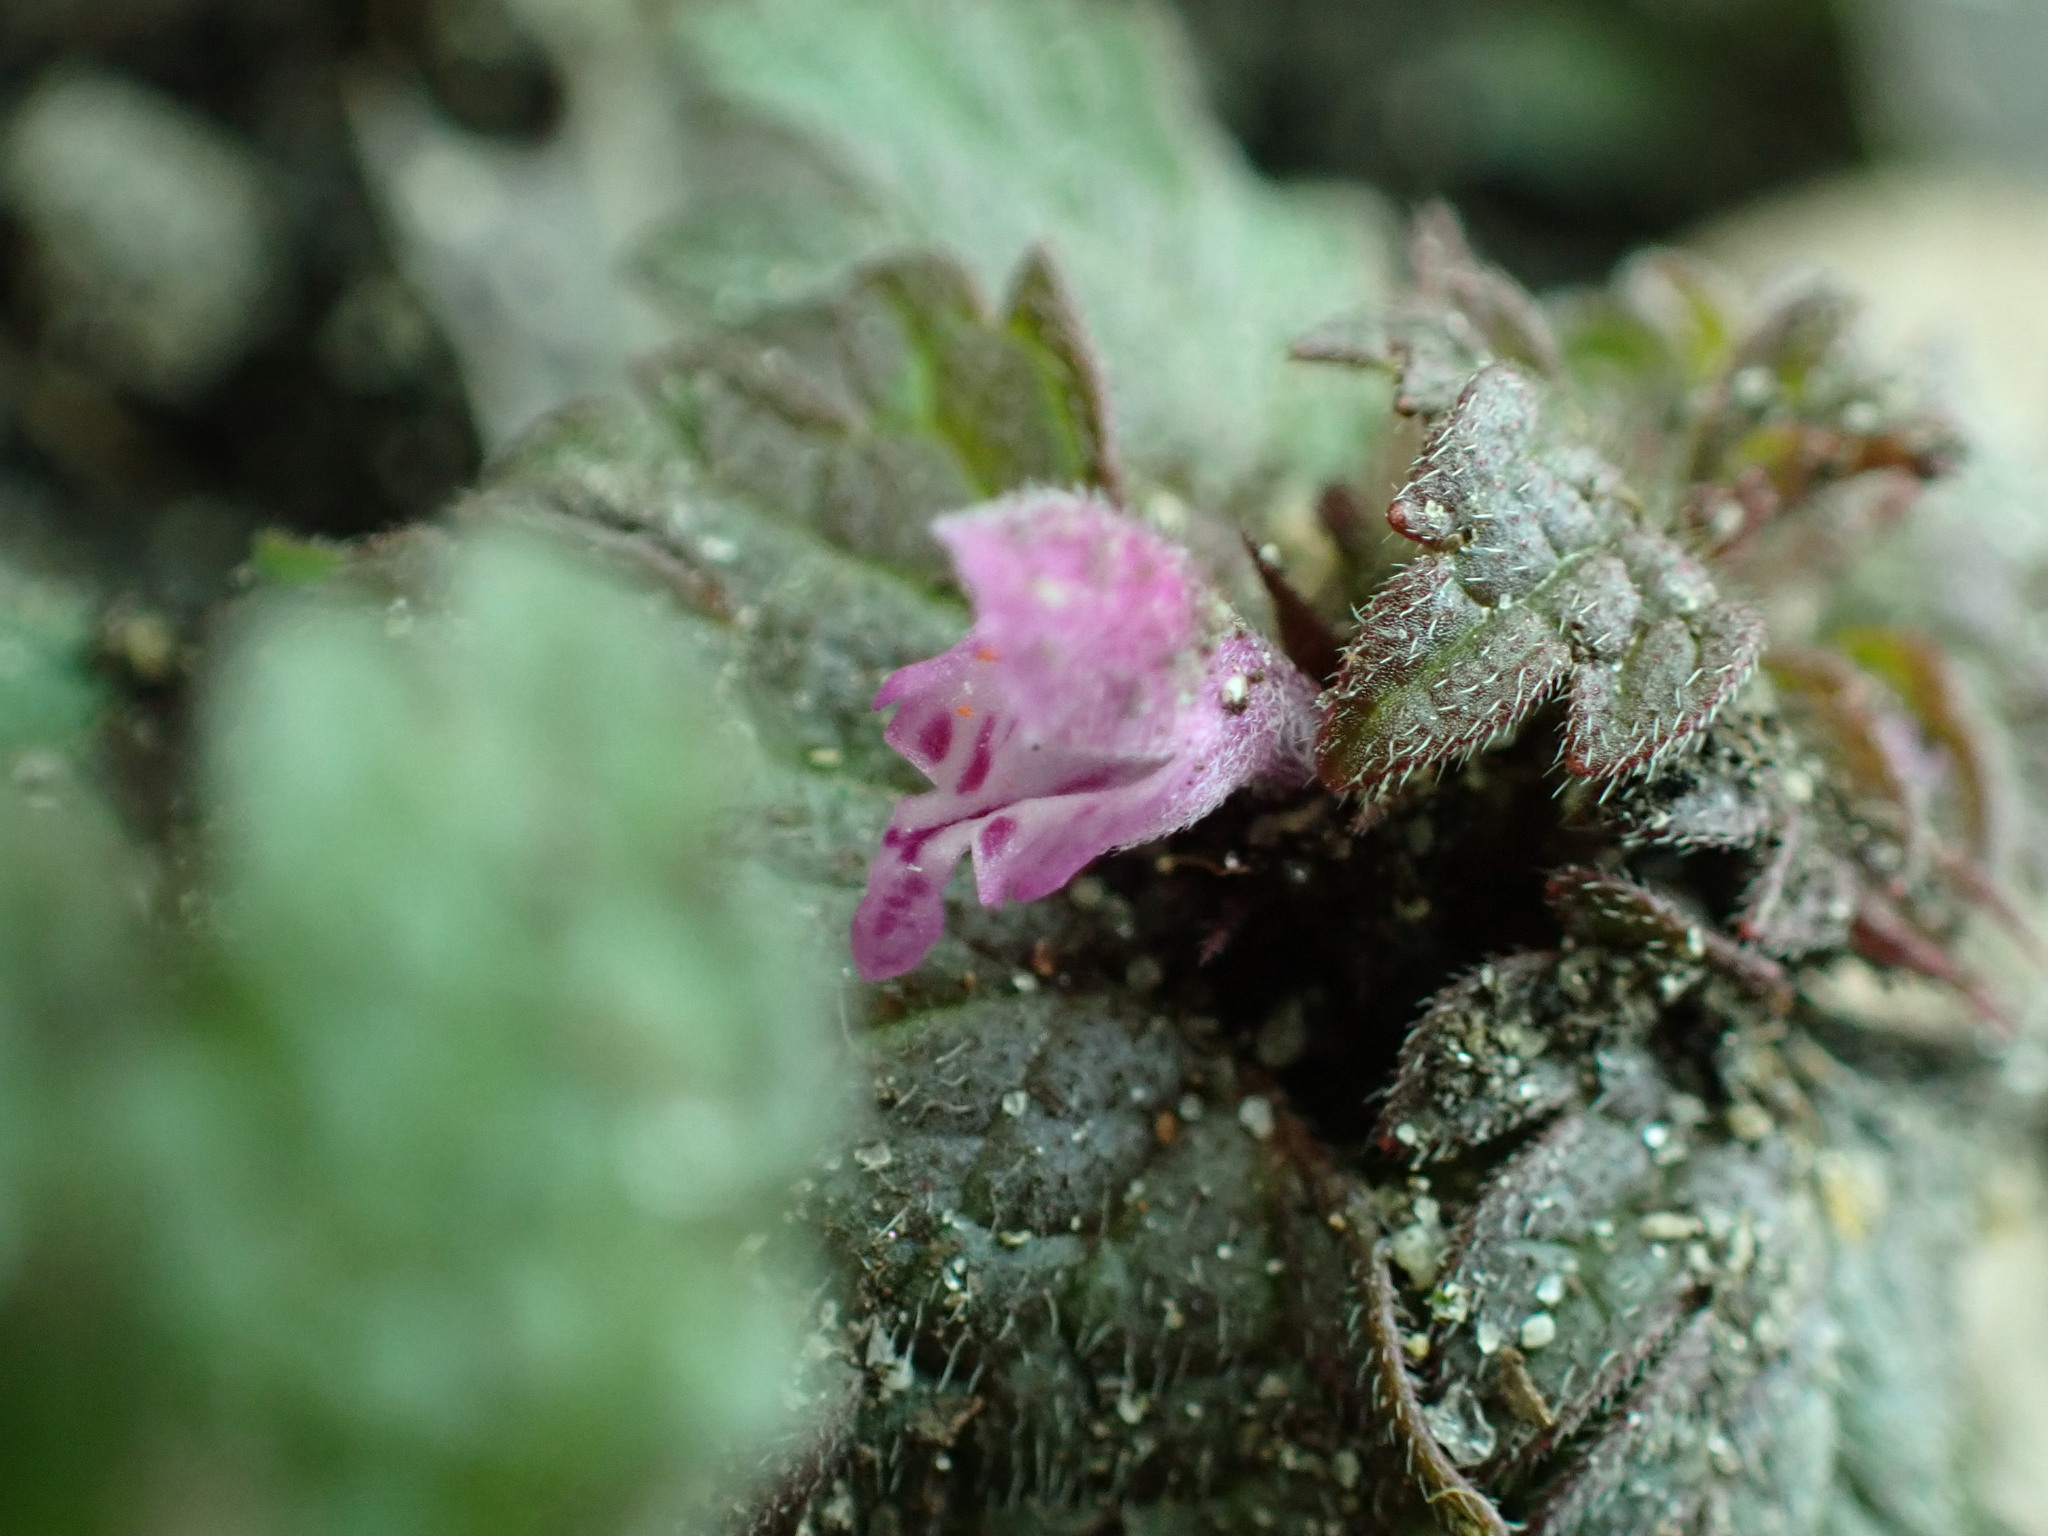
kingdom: Plantae
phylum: Tracheophyta
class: Magnoliopsida
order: Lamiales
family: Lamiaceae
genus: Lamium
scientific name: Lamium amplexicaule
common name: Henbit dead-nettle
